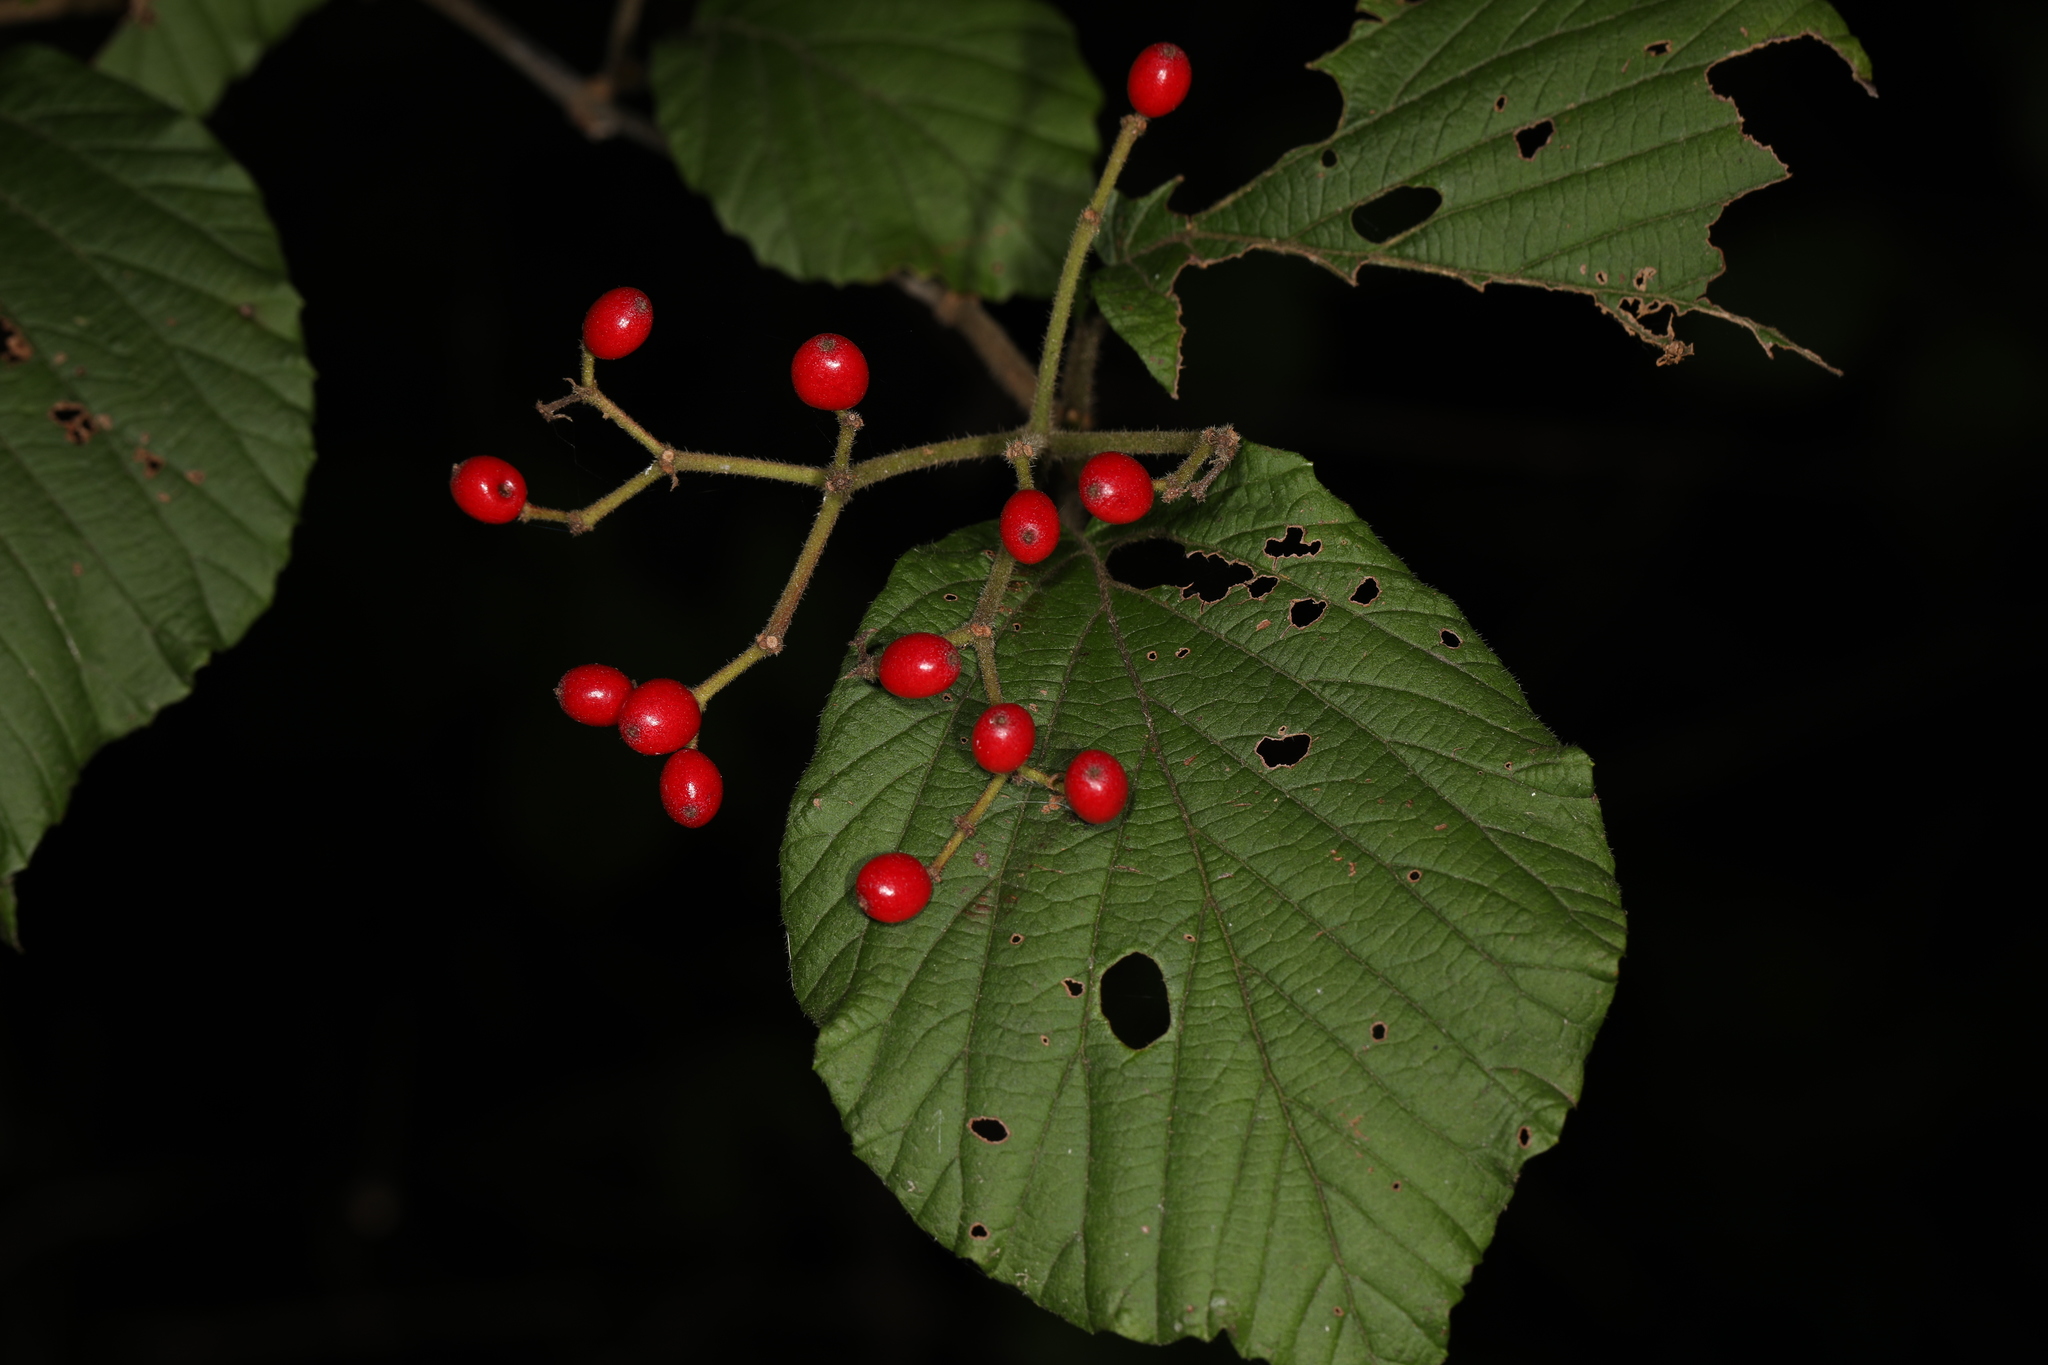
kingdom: Plantae
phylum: Tracheophyta
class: Magnoliopsida
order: Dipsacales
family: Viburnaceae
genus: Viburnum
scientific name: Viburnum dilatatum
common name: Linden arrowwood
